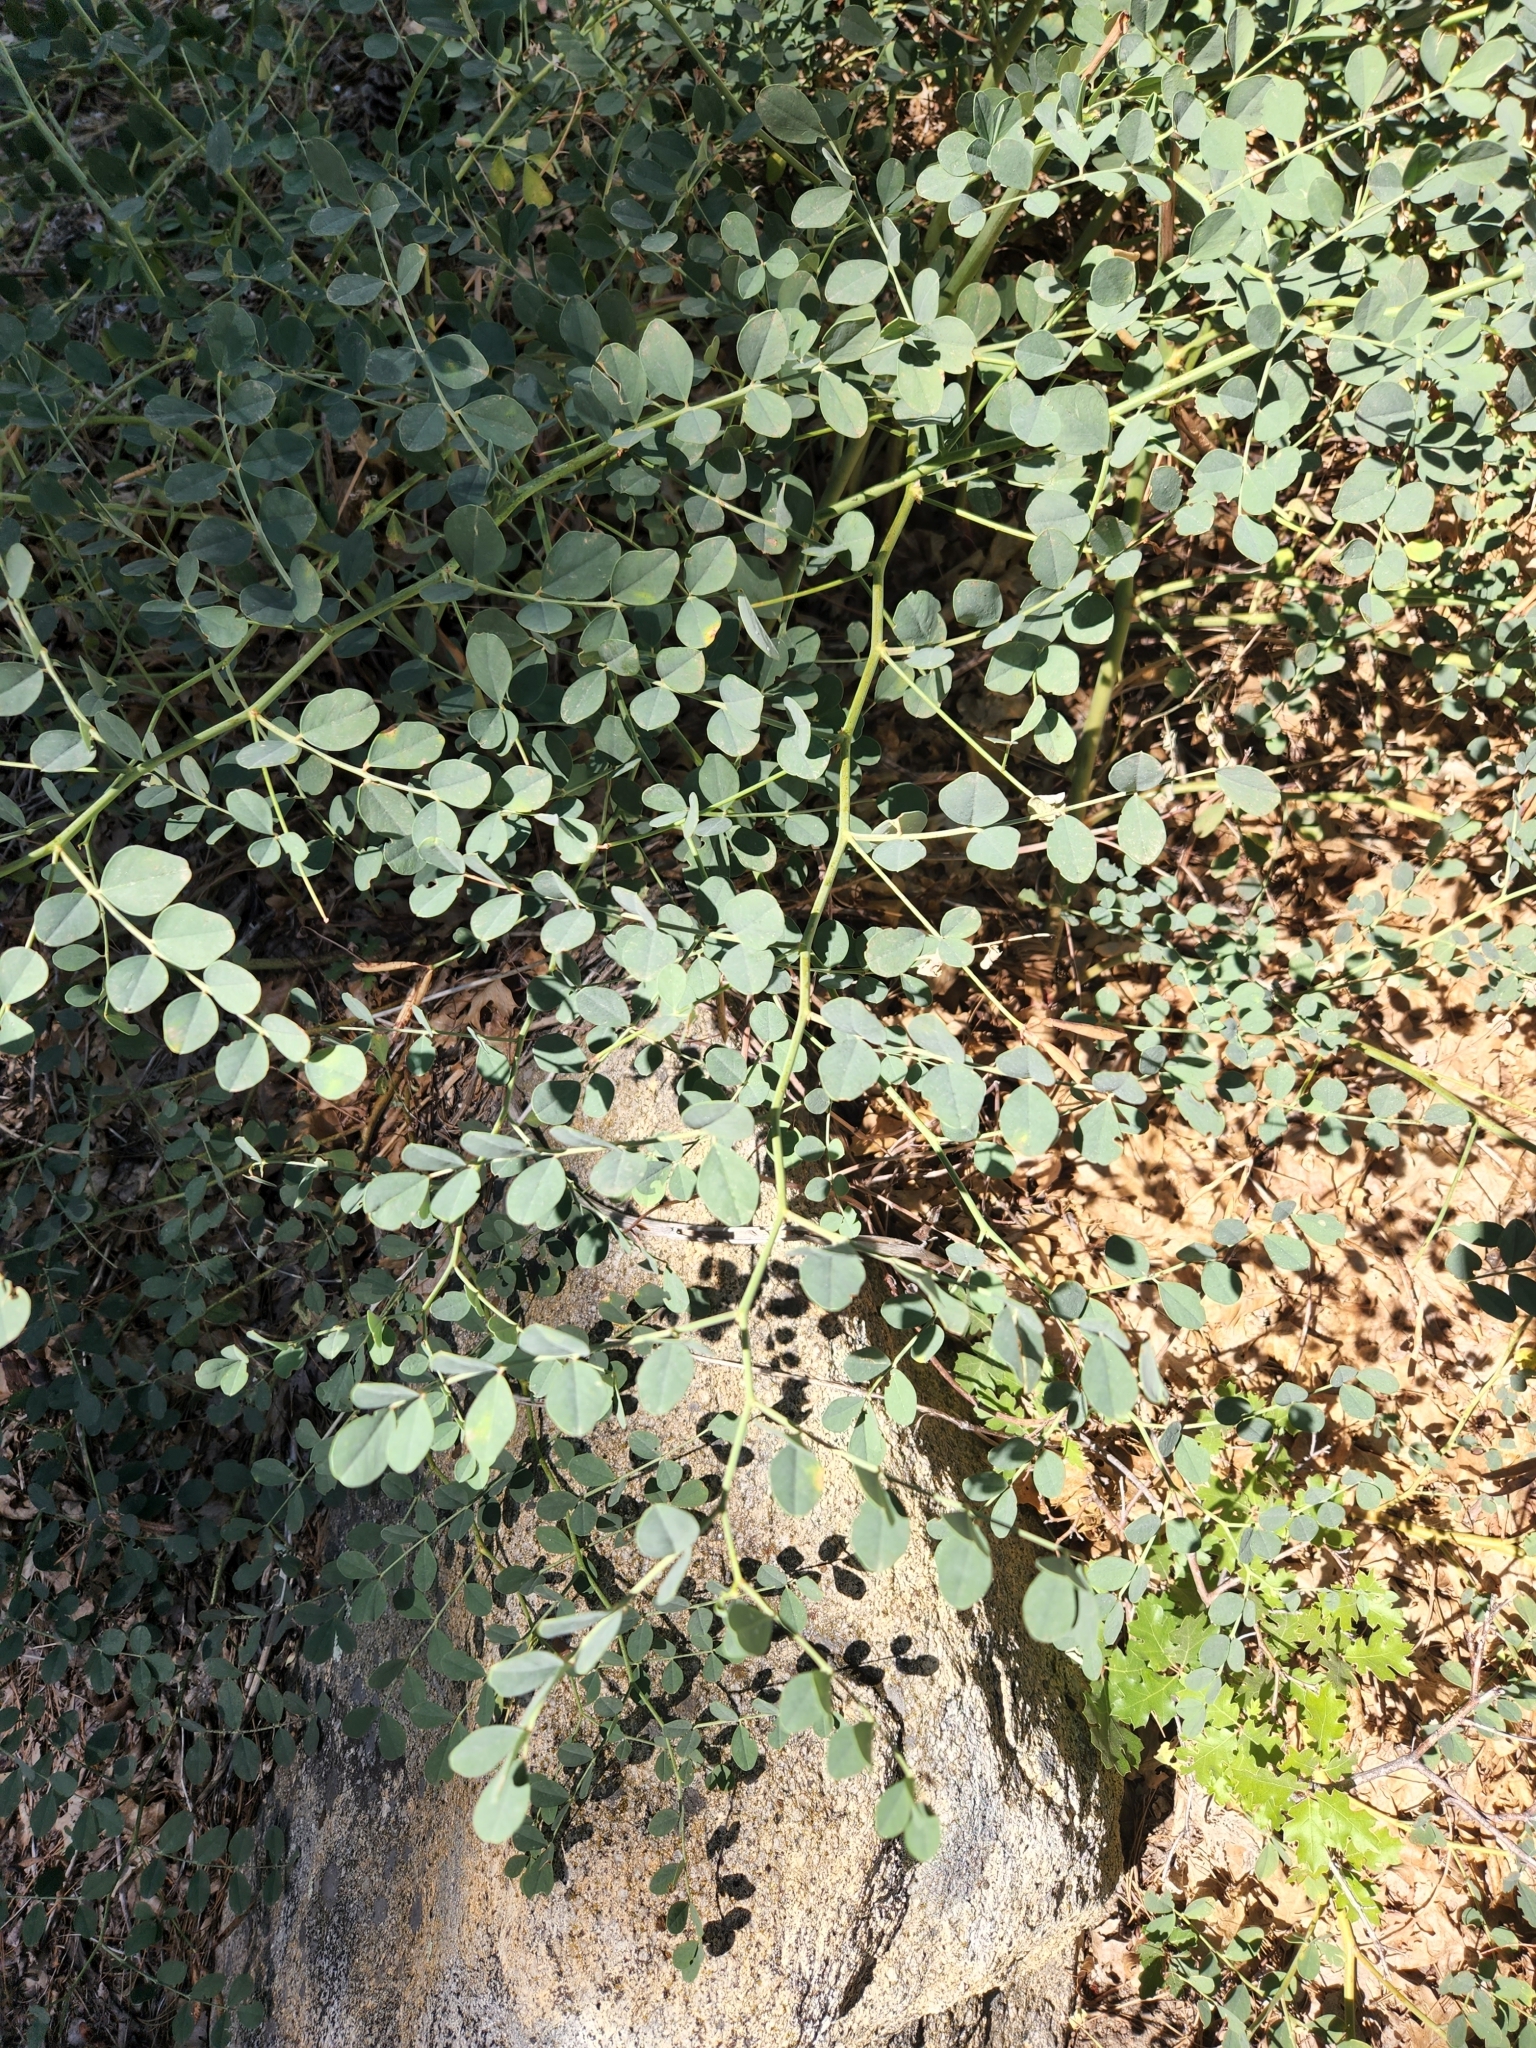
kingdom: Plantae
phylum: Tracheophyta
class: Magnoliopsida
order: Fabales
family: Fabaceae
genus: Hosackia
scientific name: Hosackia crassifolia
